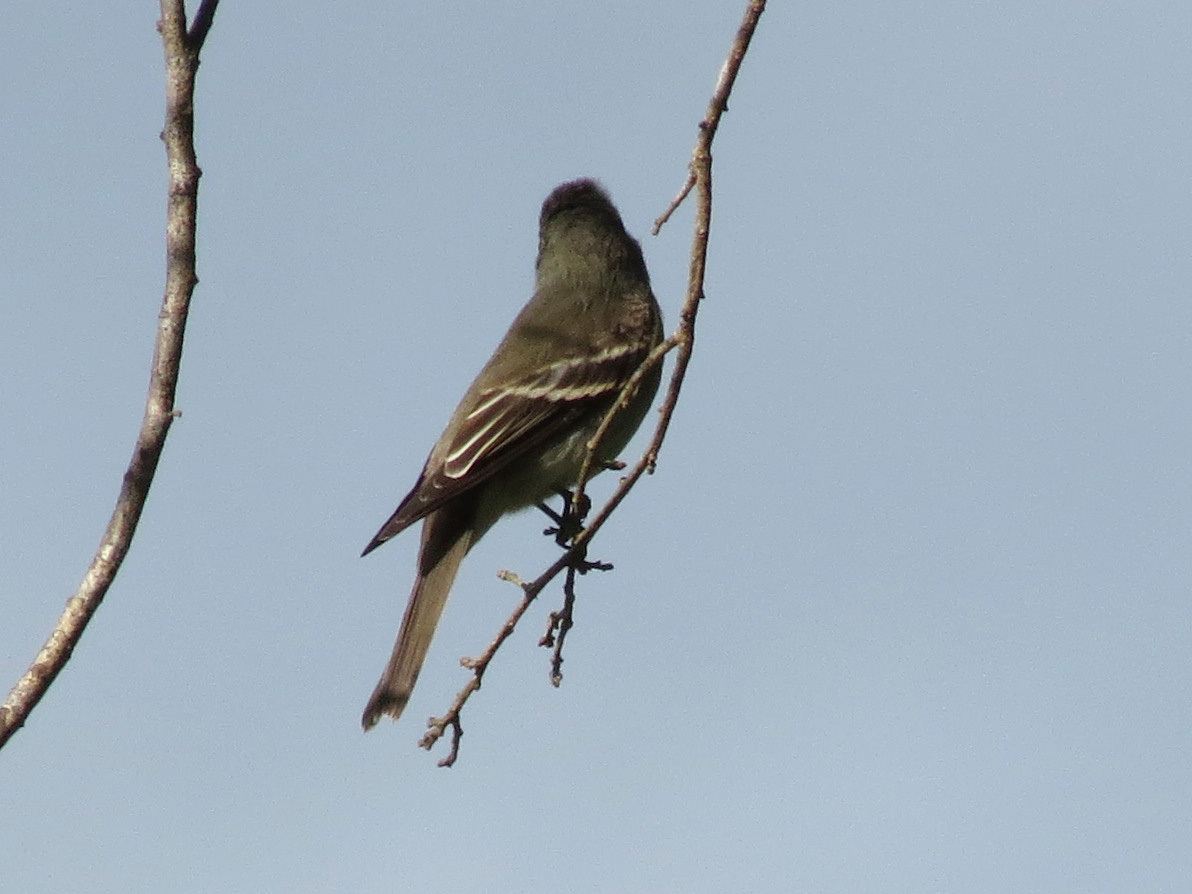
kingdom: Animalia
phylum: Chordata
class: Aves
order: Passeriformes
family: Tyrannidae
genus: Contopus
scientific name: Contopus virens
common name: Eastern wood-pewee
